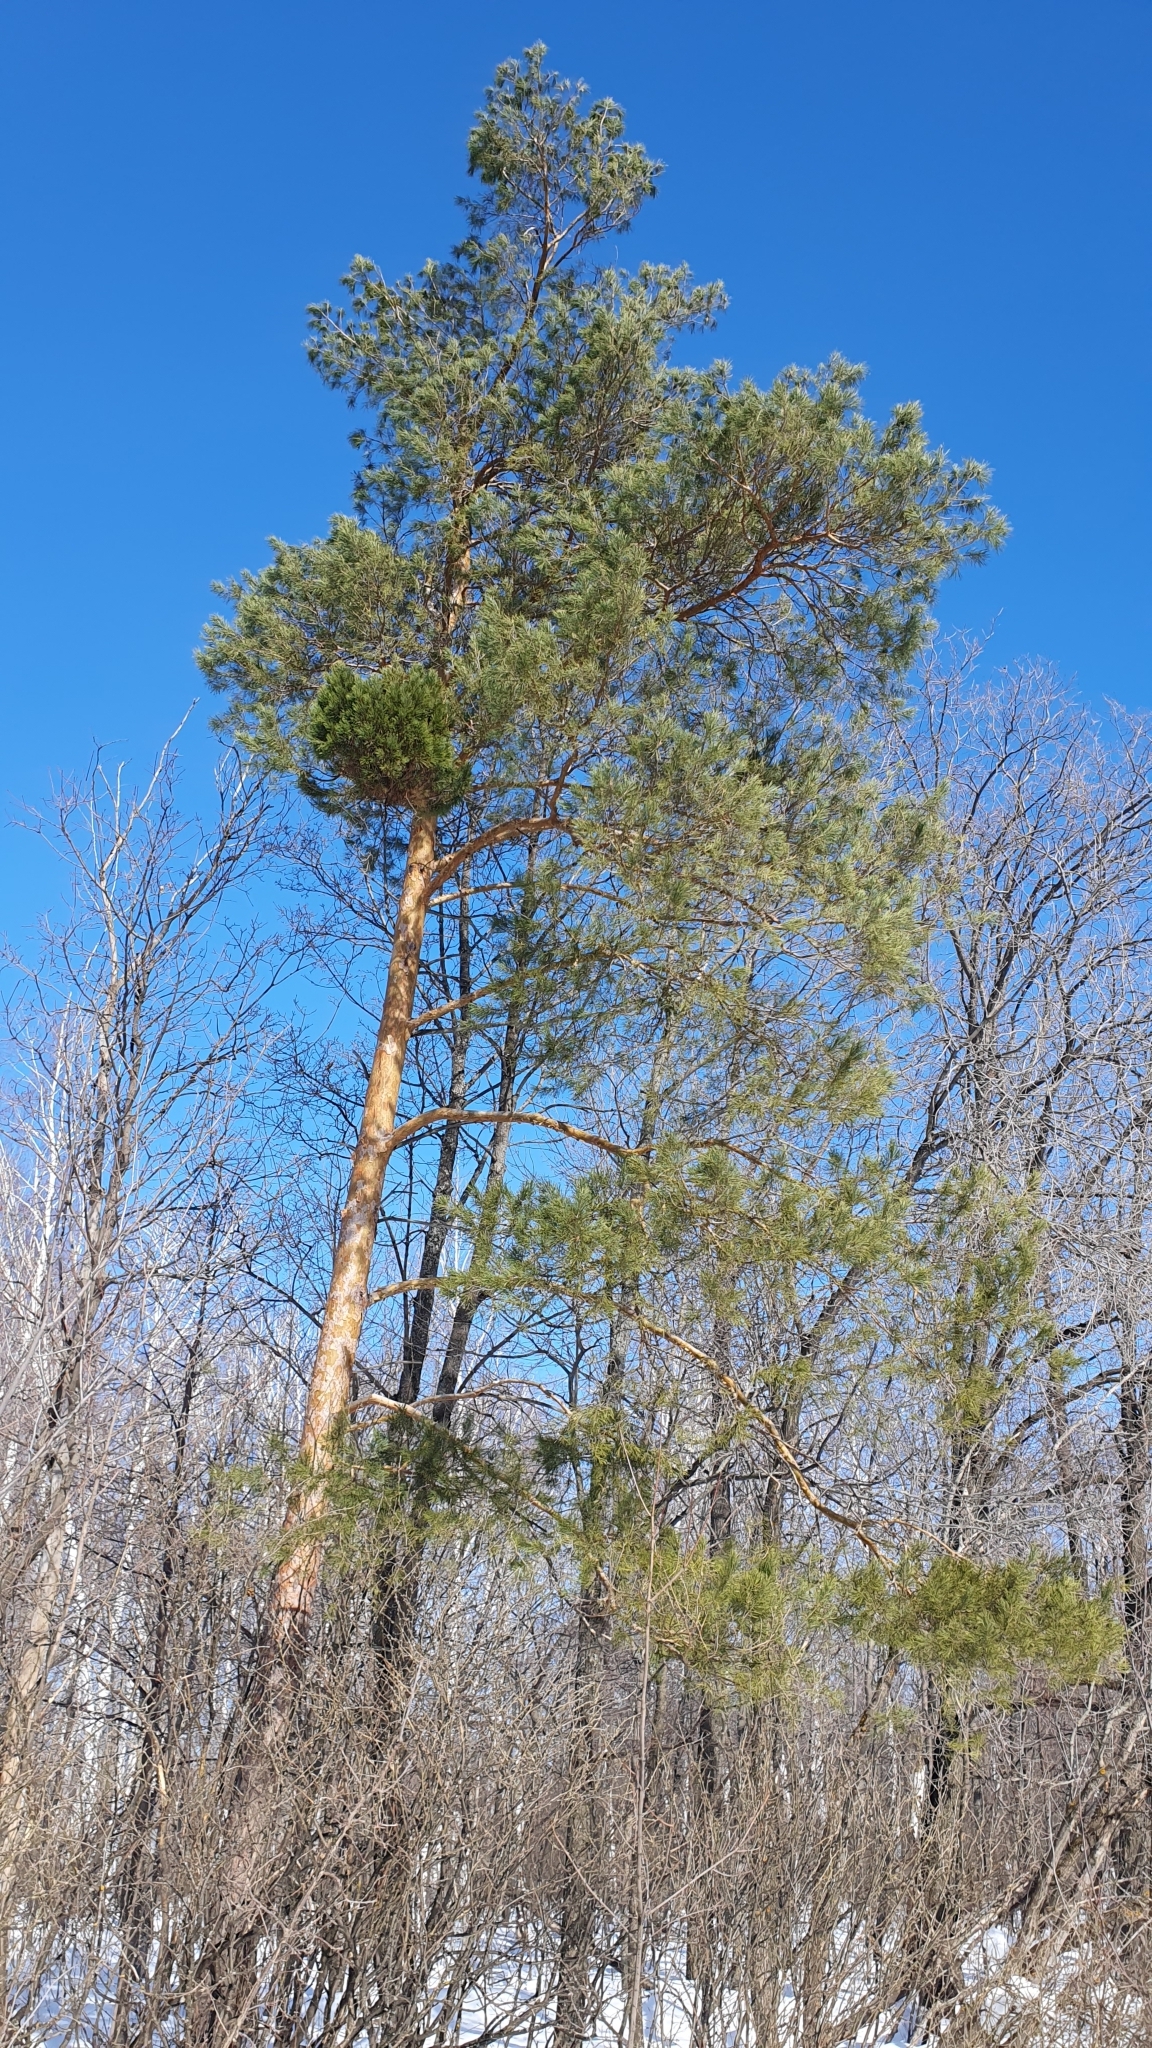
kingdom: Plantae
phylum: Tracheophyta
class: Pinopsida
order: Pinales
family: Pinaceae
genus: Pinus
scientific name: Pinus sylvestris
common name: Scots pine
